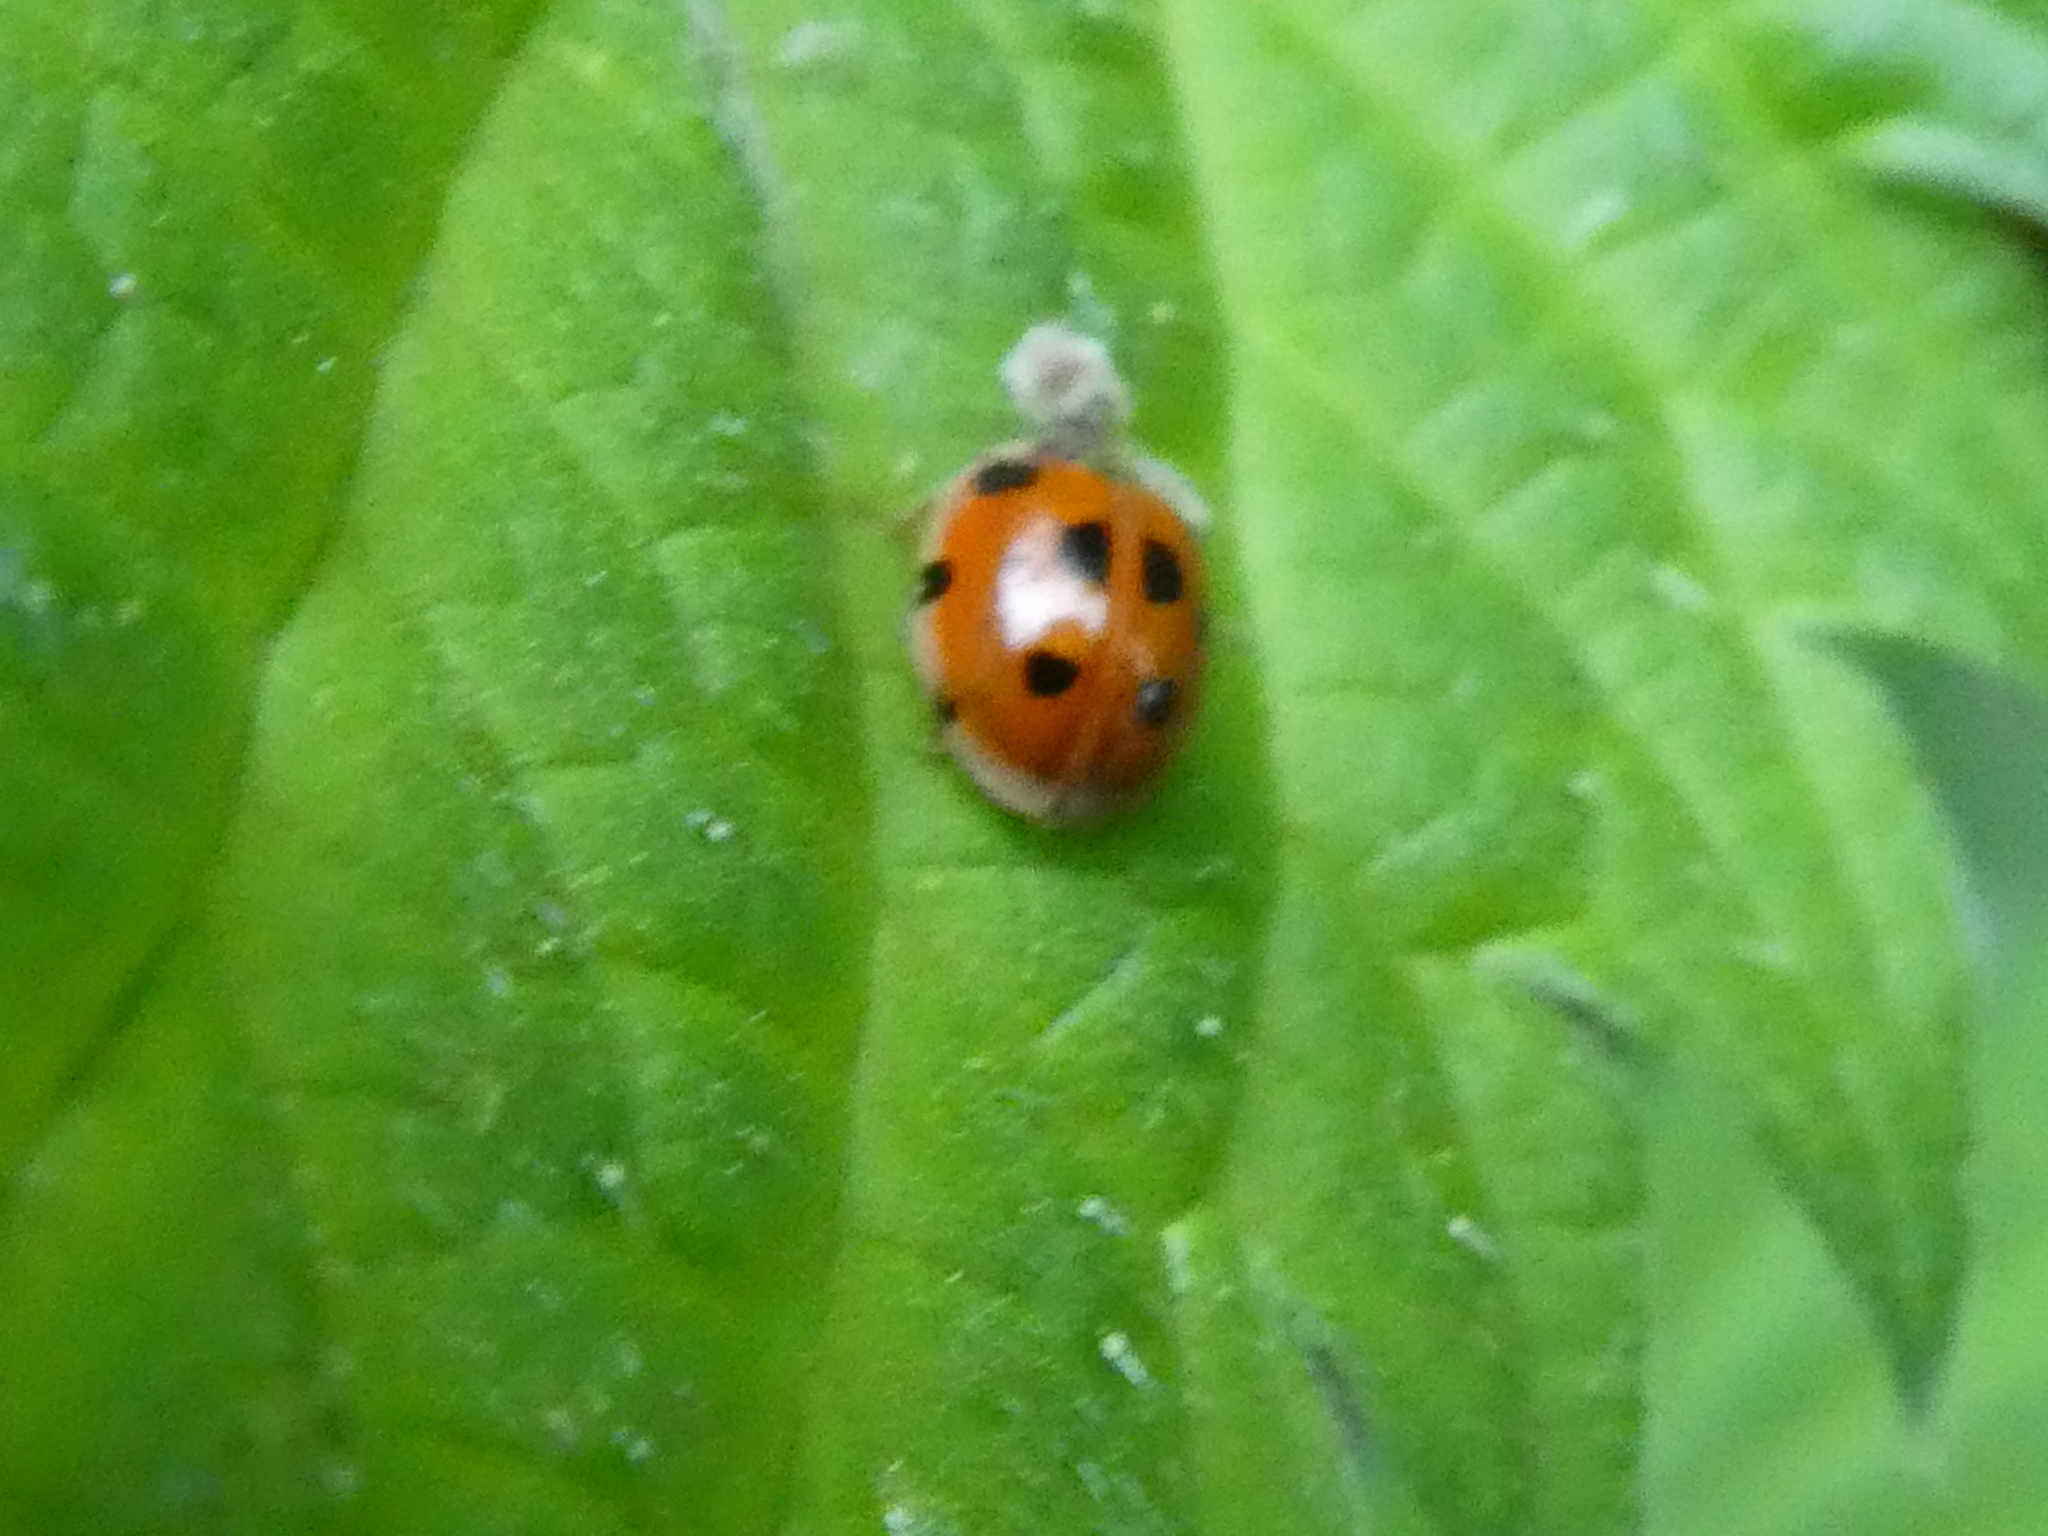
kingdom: Animalia
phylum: Arthropoda
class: Insecta
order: Coleoptera
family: Coccinellidae
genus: Adalia
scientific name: Adalia decempunctata
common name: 10-spot ladybird
